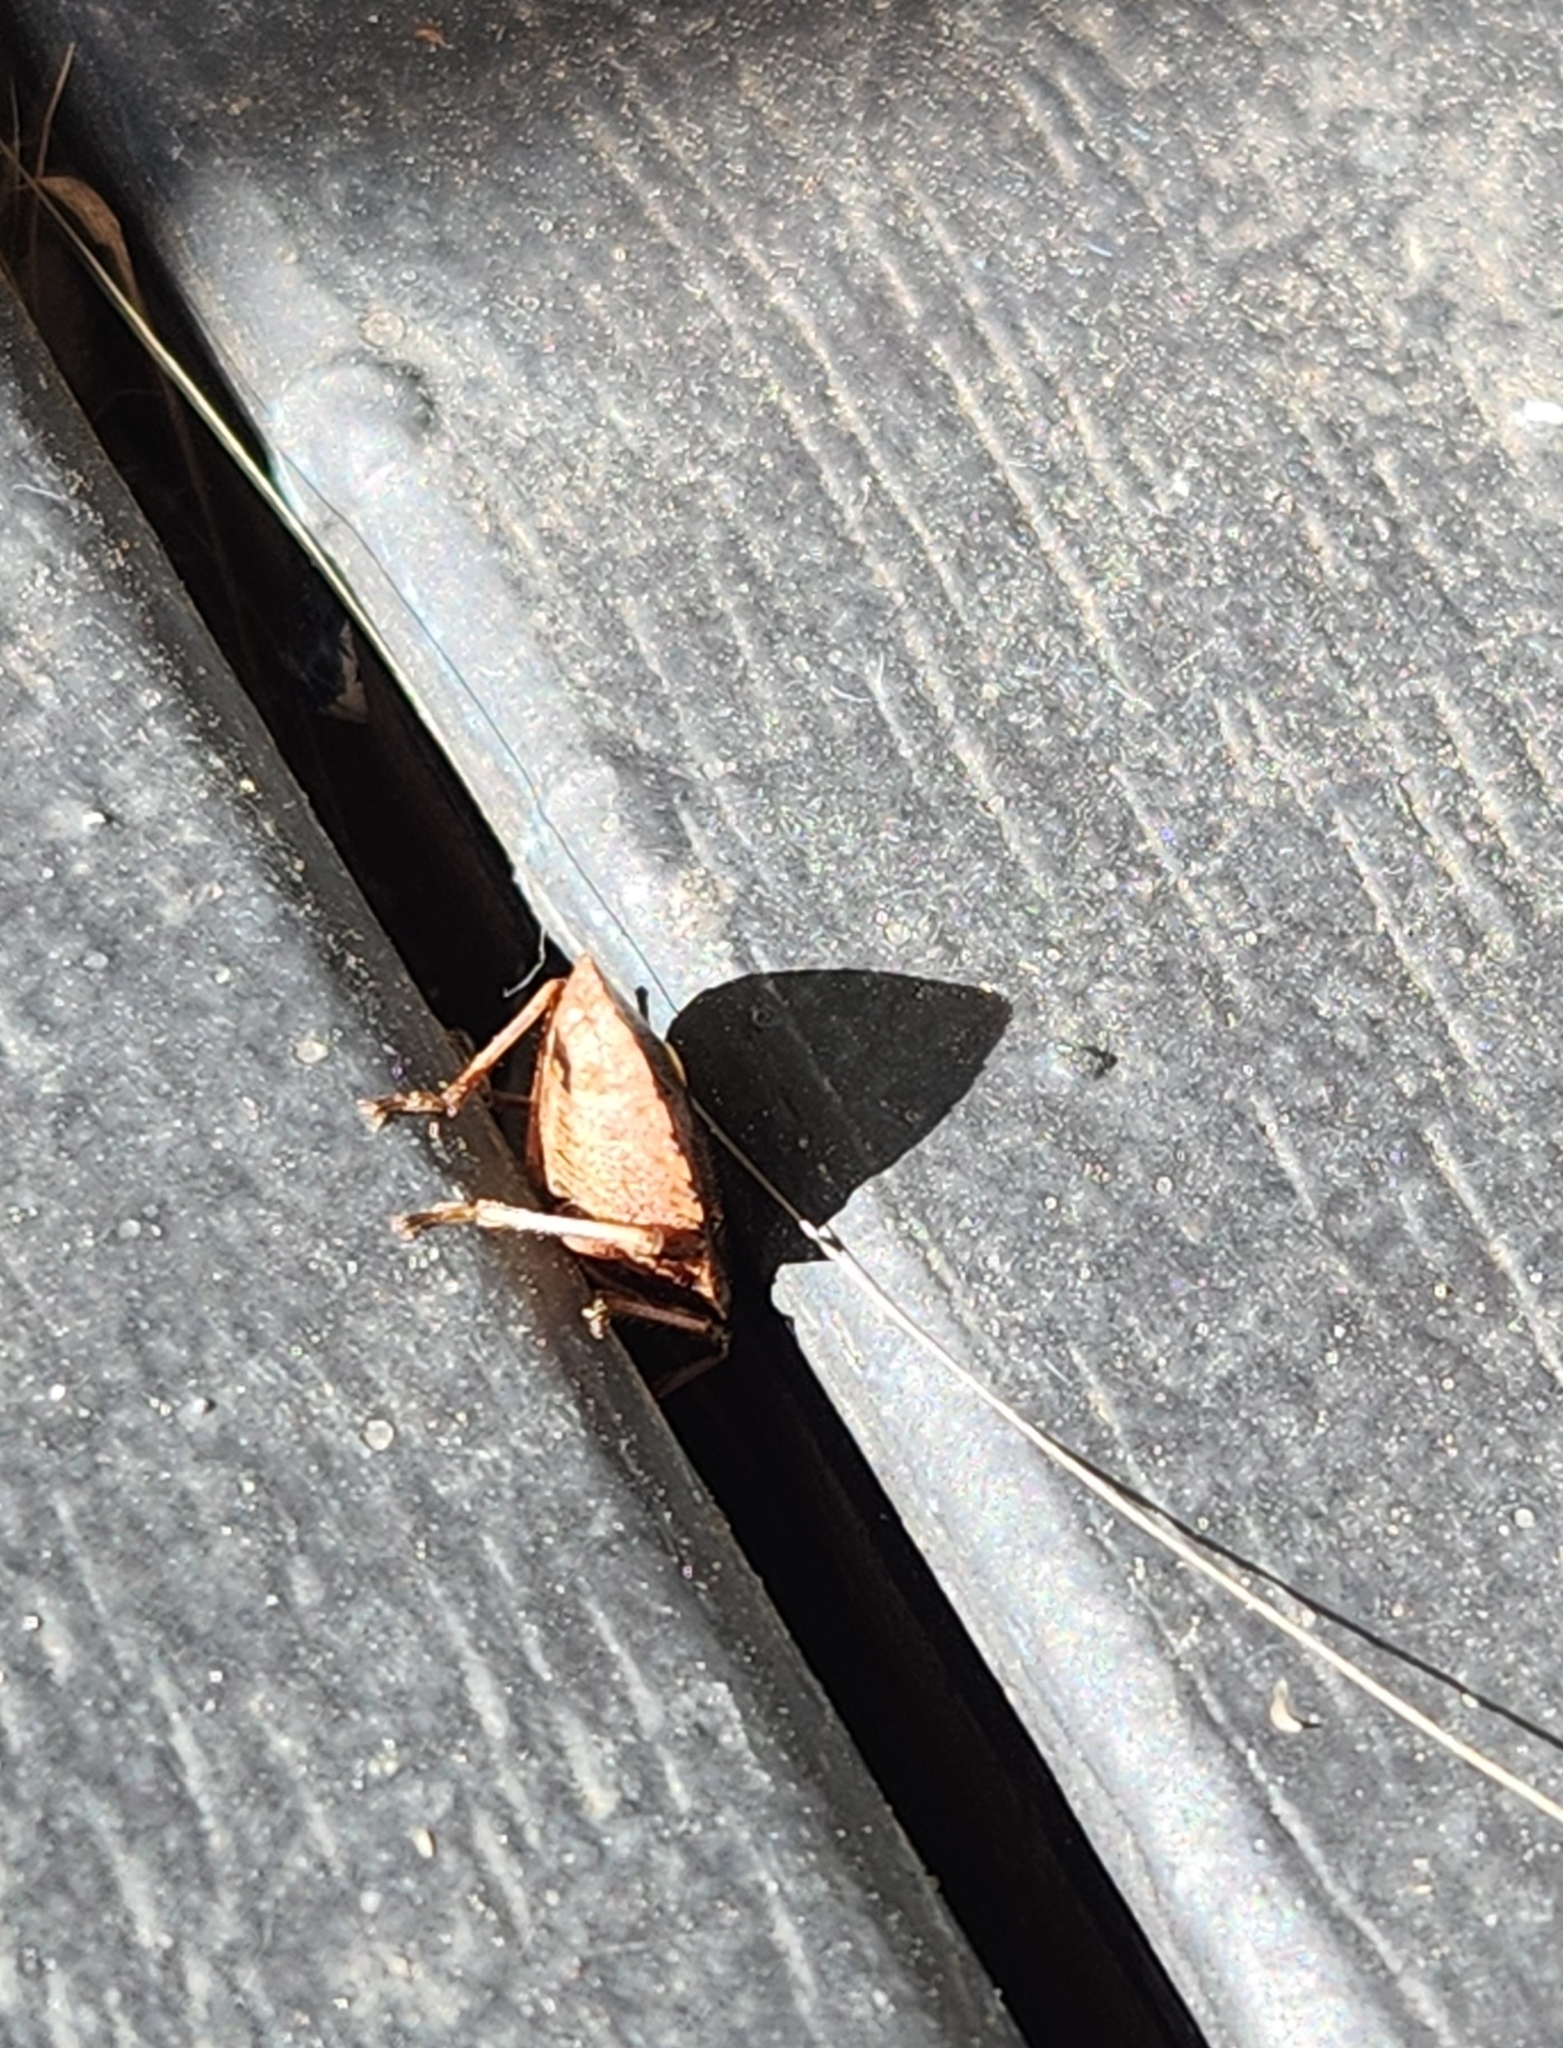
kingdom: Animalia
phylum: Arthropoda
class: Insecta
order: Hemiptera
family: Pentatomidae
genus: Cermatulus
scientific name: Cermatulus nasalis
